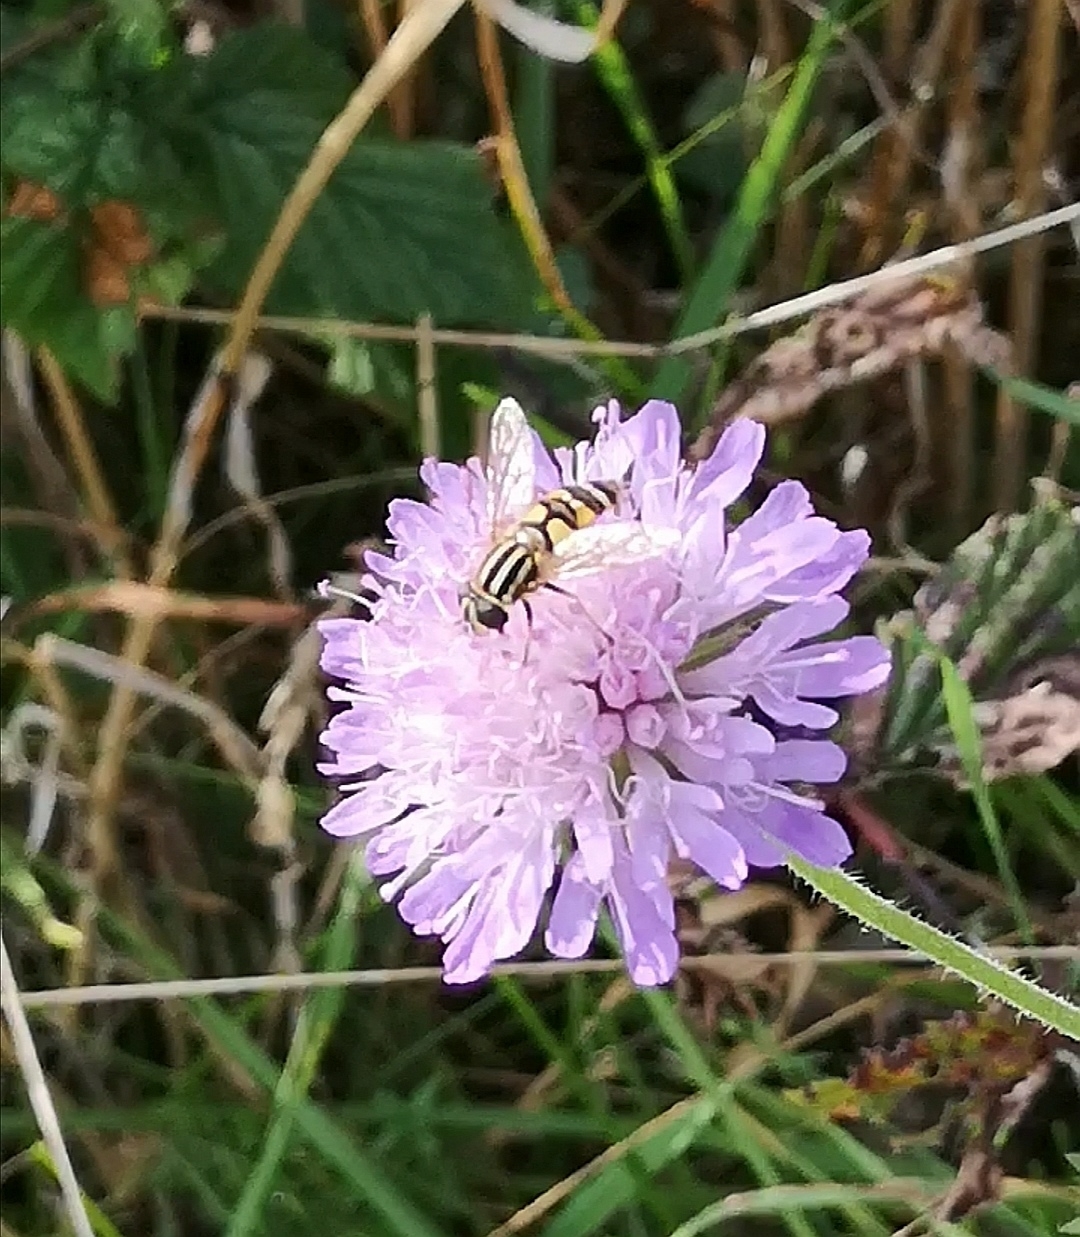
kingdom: Animalia
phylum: Arthropoda
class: Insecta
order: Diptera
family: Syrphidae
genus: Helophilus
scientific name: Helophilus pendulus
